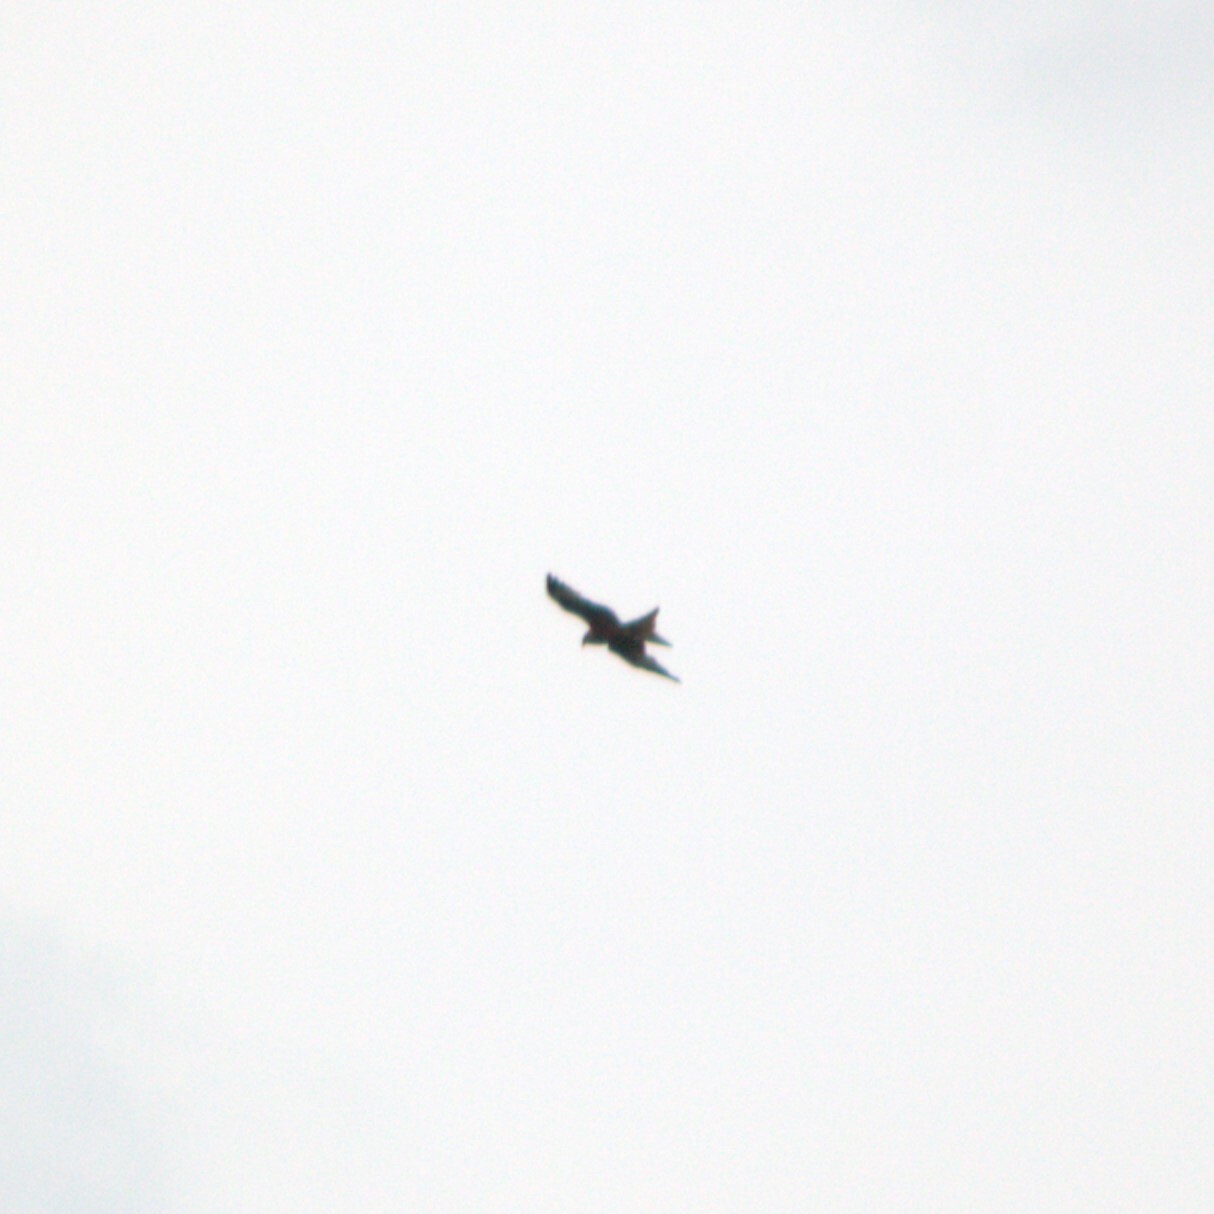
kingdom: Animalia
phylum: Chordata
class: Aves
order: Accipitriformes
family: Accipitridae
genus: Milvus
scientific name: Milvus milvus
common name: Red kite
